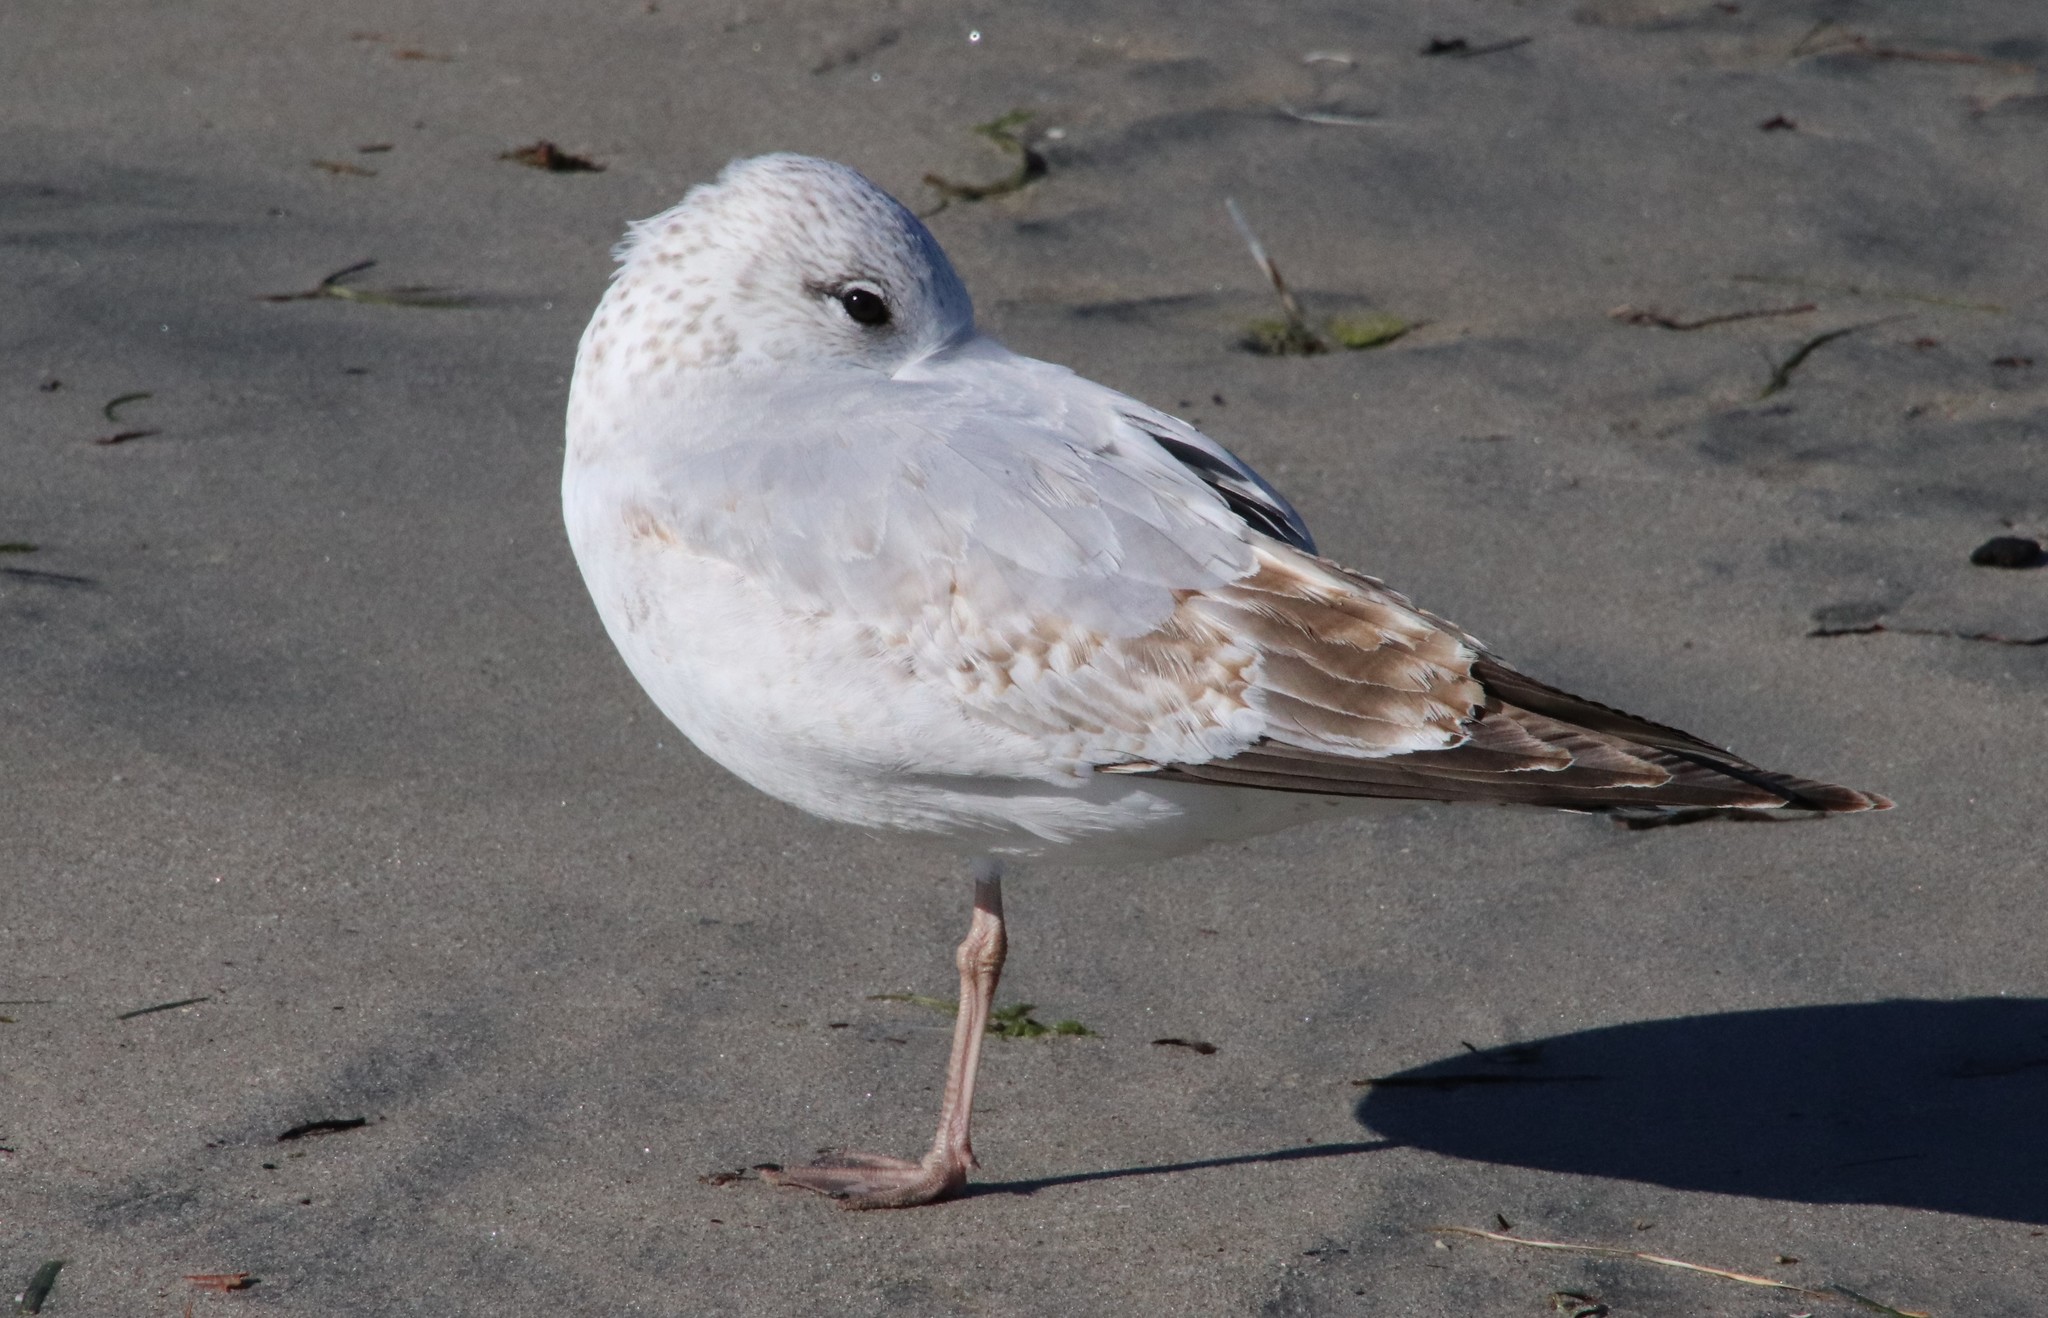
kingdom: Animalia
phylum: Chordata
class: Aves
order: Charadriiformes
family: Laridae
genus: Larus
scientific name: Larus delawarensis
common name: Ring-billed gull
